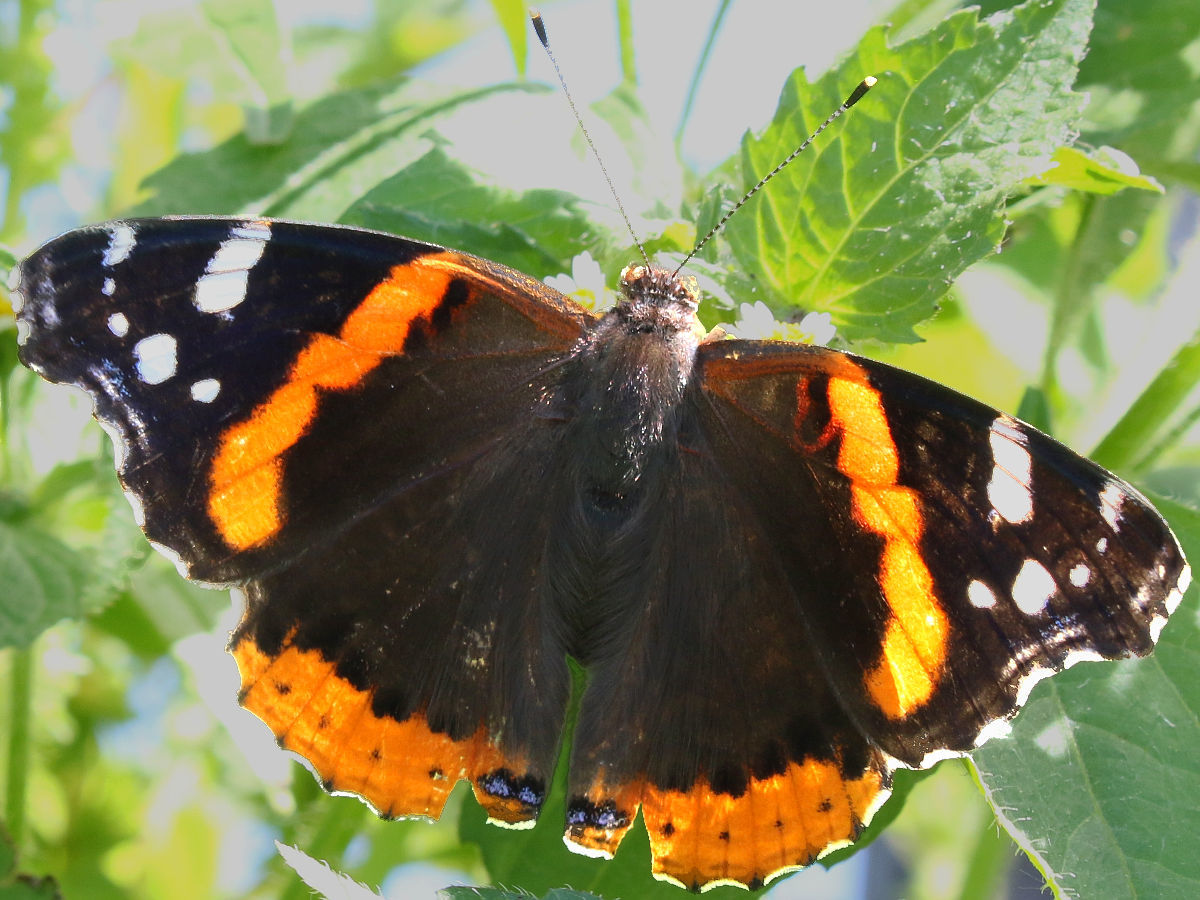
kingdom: Animalia
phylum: Arthropoda
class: Insecta
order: Lepidoptera
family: Nymphalidae
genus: Vanessa
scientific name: Vanessa atalanta
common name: Red admiral
